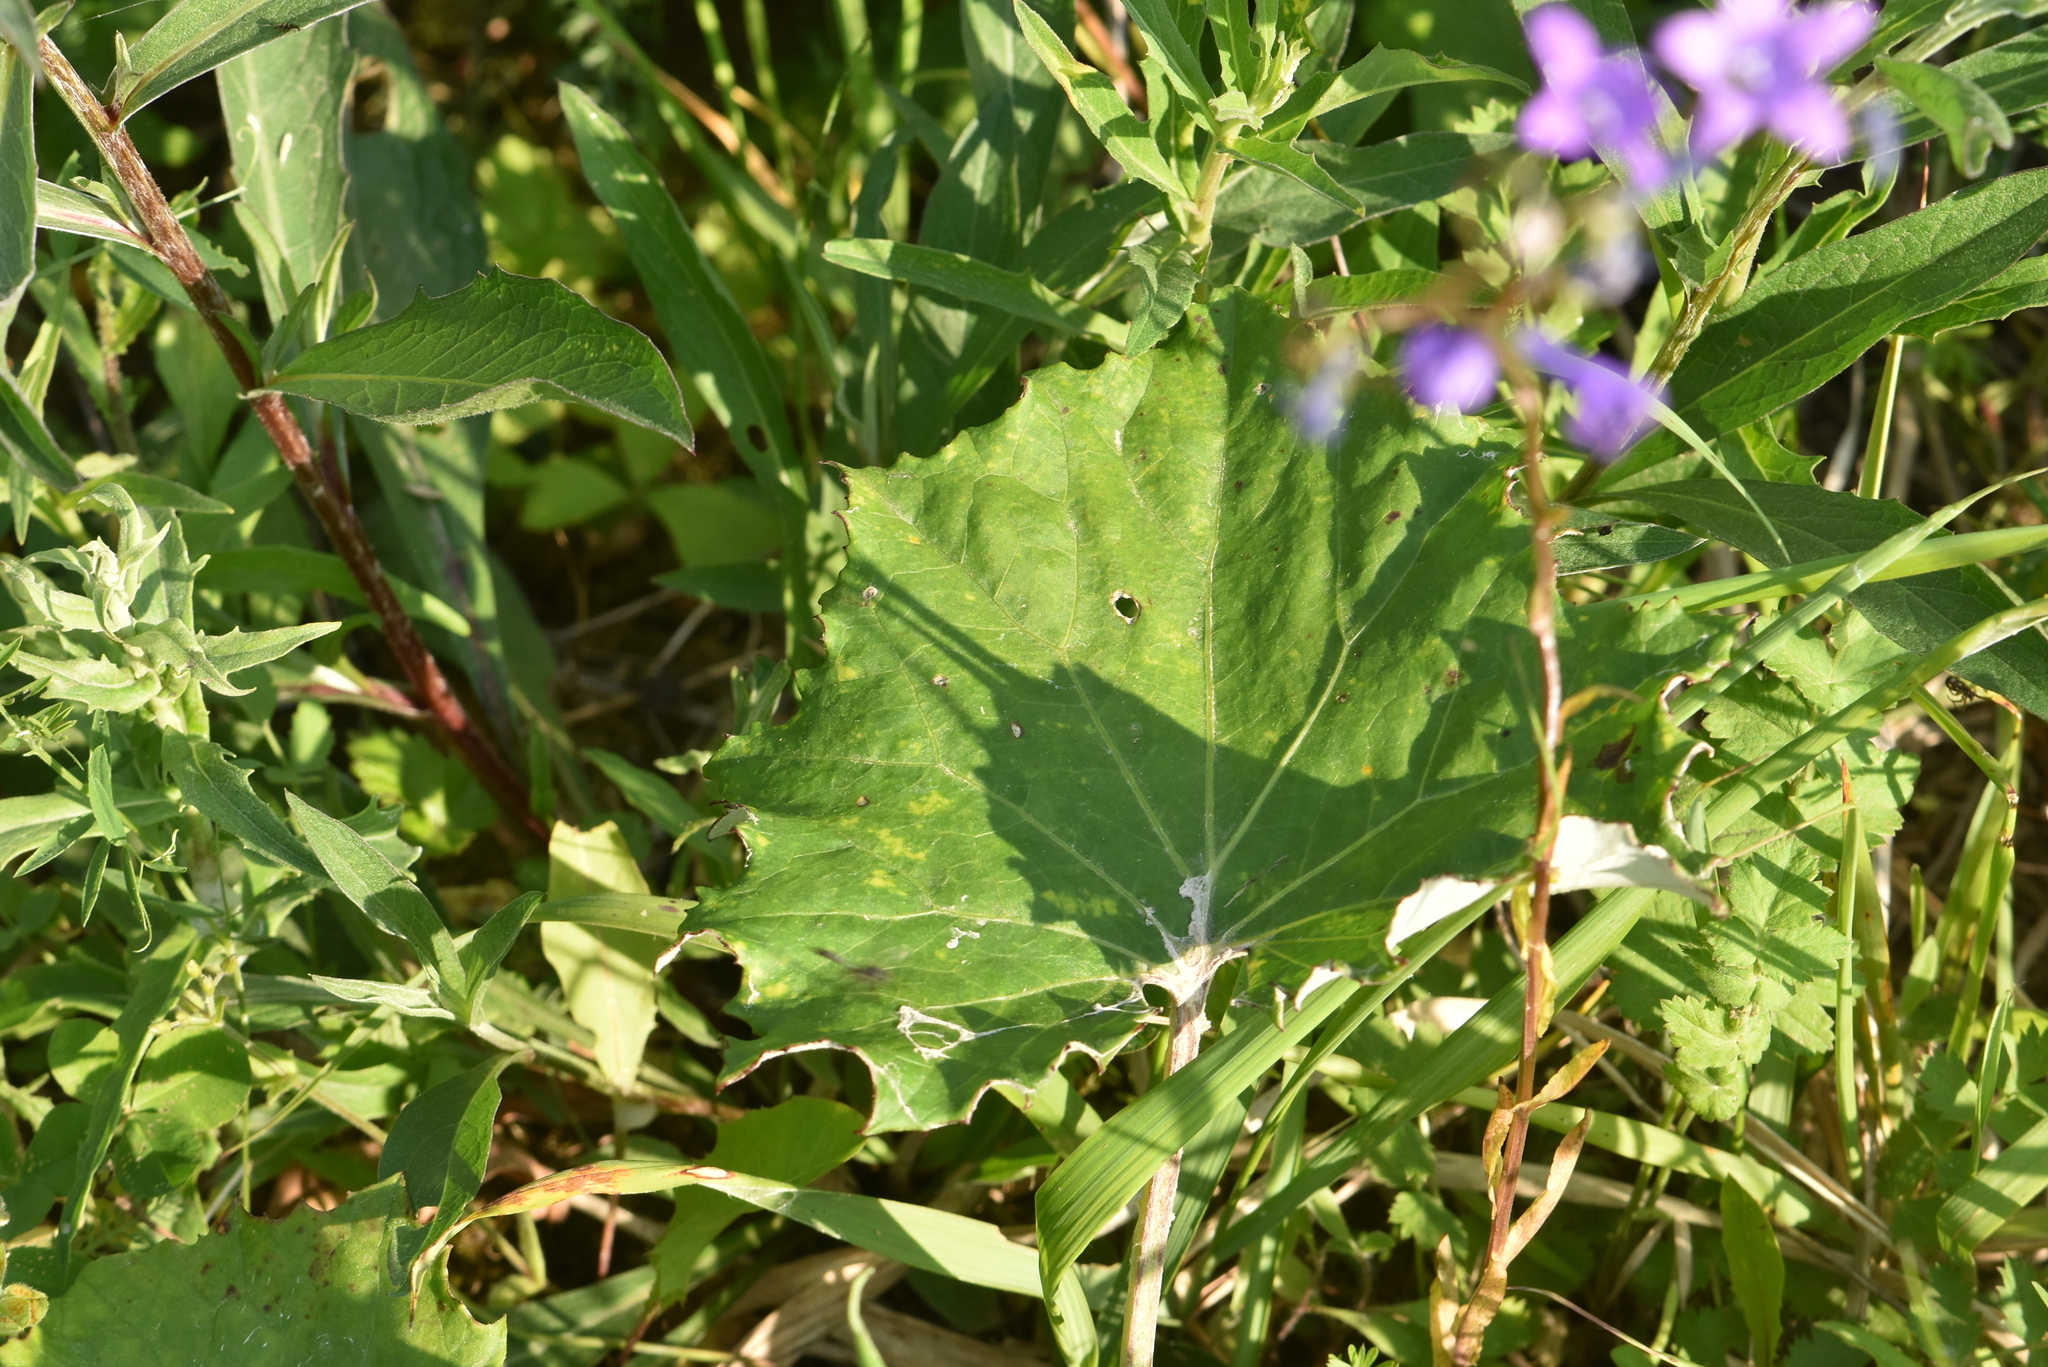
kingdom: Plantae
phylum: Tracheophyta
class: Magnoliopsida
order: Asterales
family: Asteraceae
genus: Tussilago
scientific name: Tussilago farfara
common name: Coltsfoot
